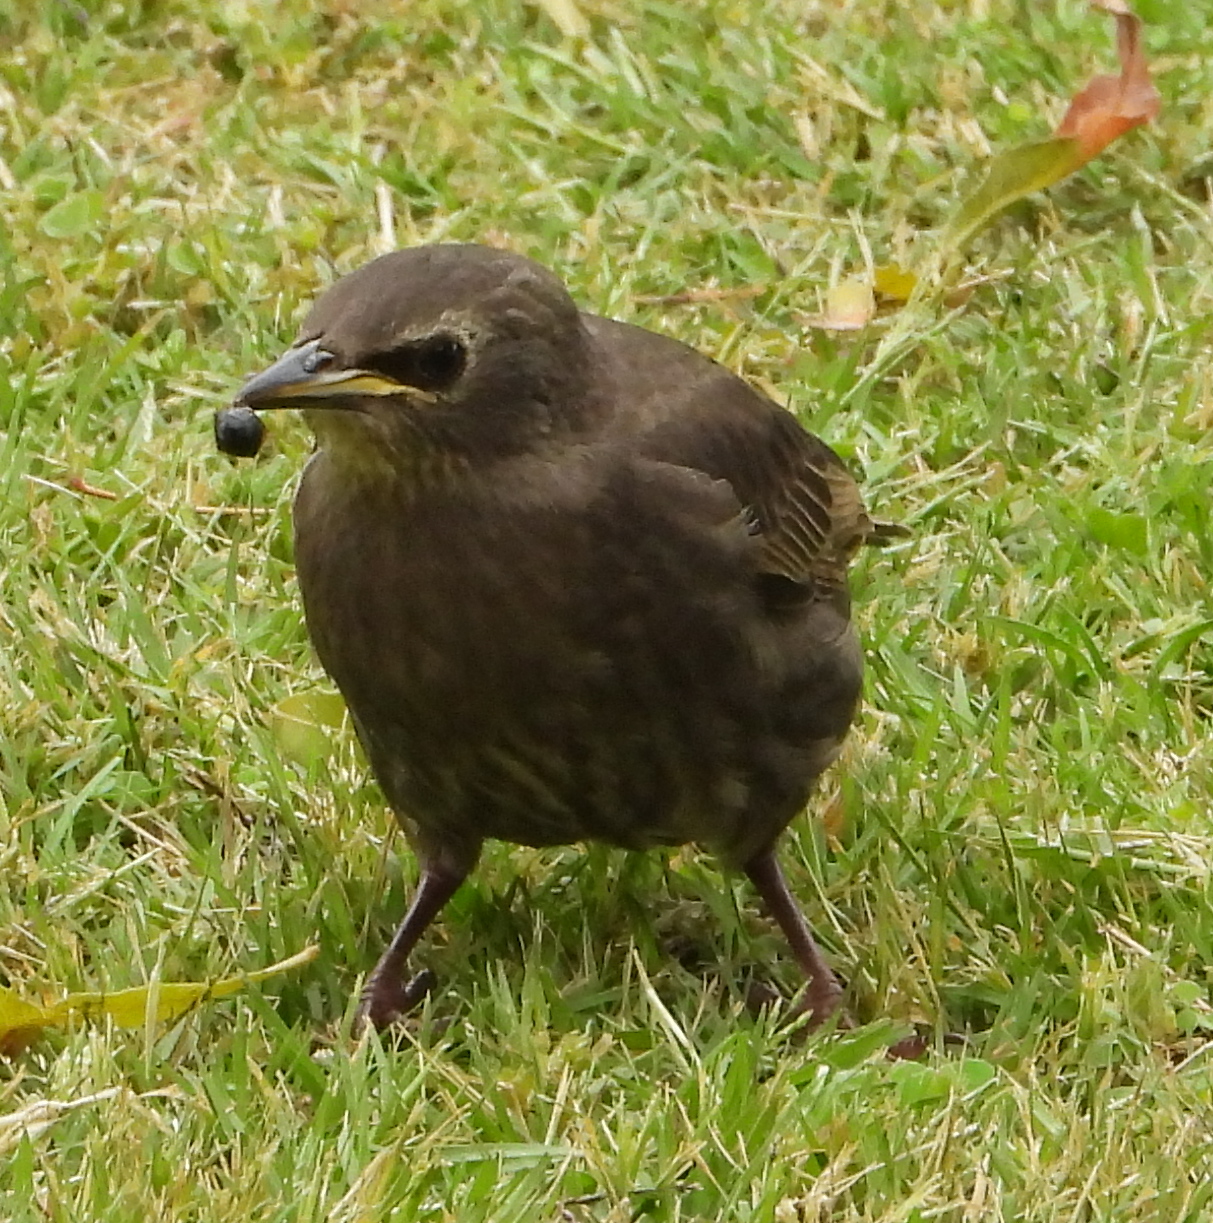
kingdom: Animalia
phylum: Chordata
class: Aves
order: Passeriformes
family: Sturnidae
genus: Sturnus
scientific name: Sturnus vulgaris
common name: Common starling
